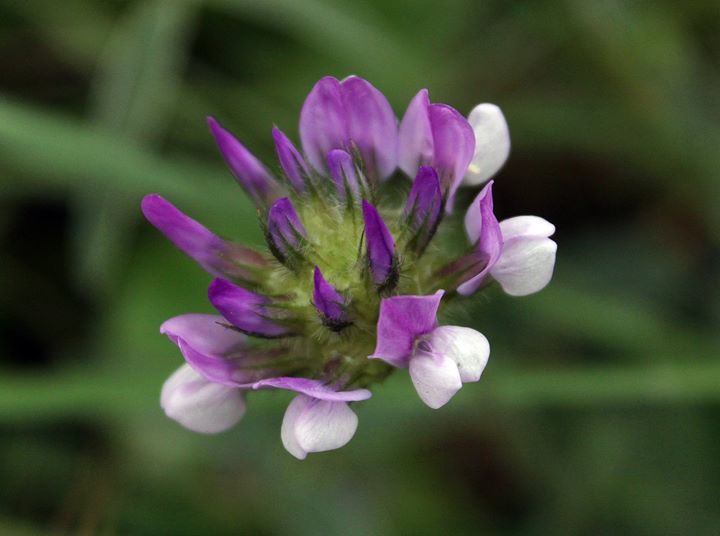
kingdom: Plantae
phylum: Tracheophyta
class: Magnoliopsida
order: Fabales
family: Fabaceae
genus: Bituminaria
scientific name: Bituminaria bituminosa
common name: Arabian pea
